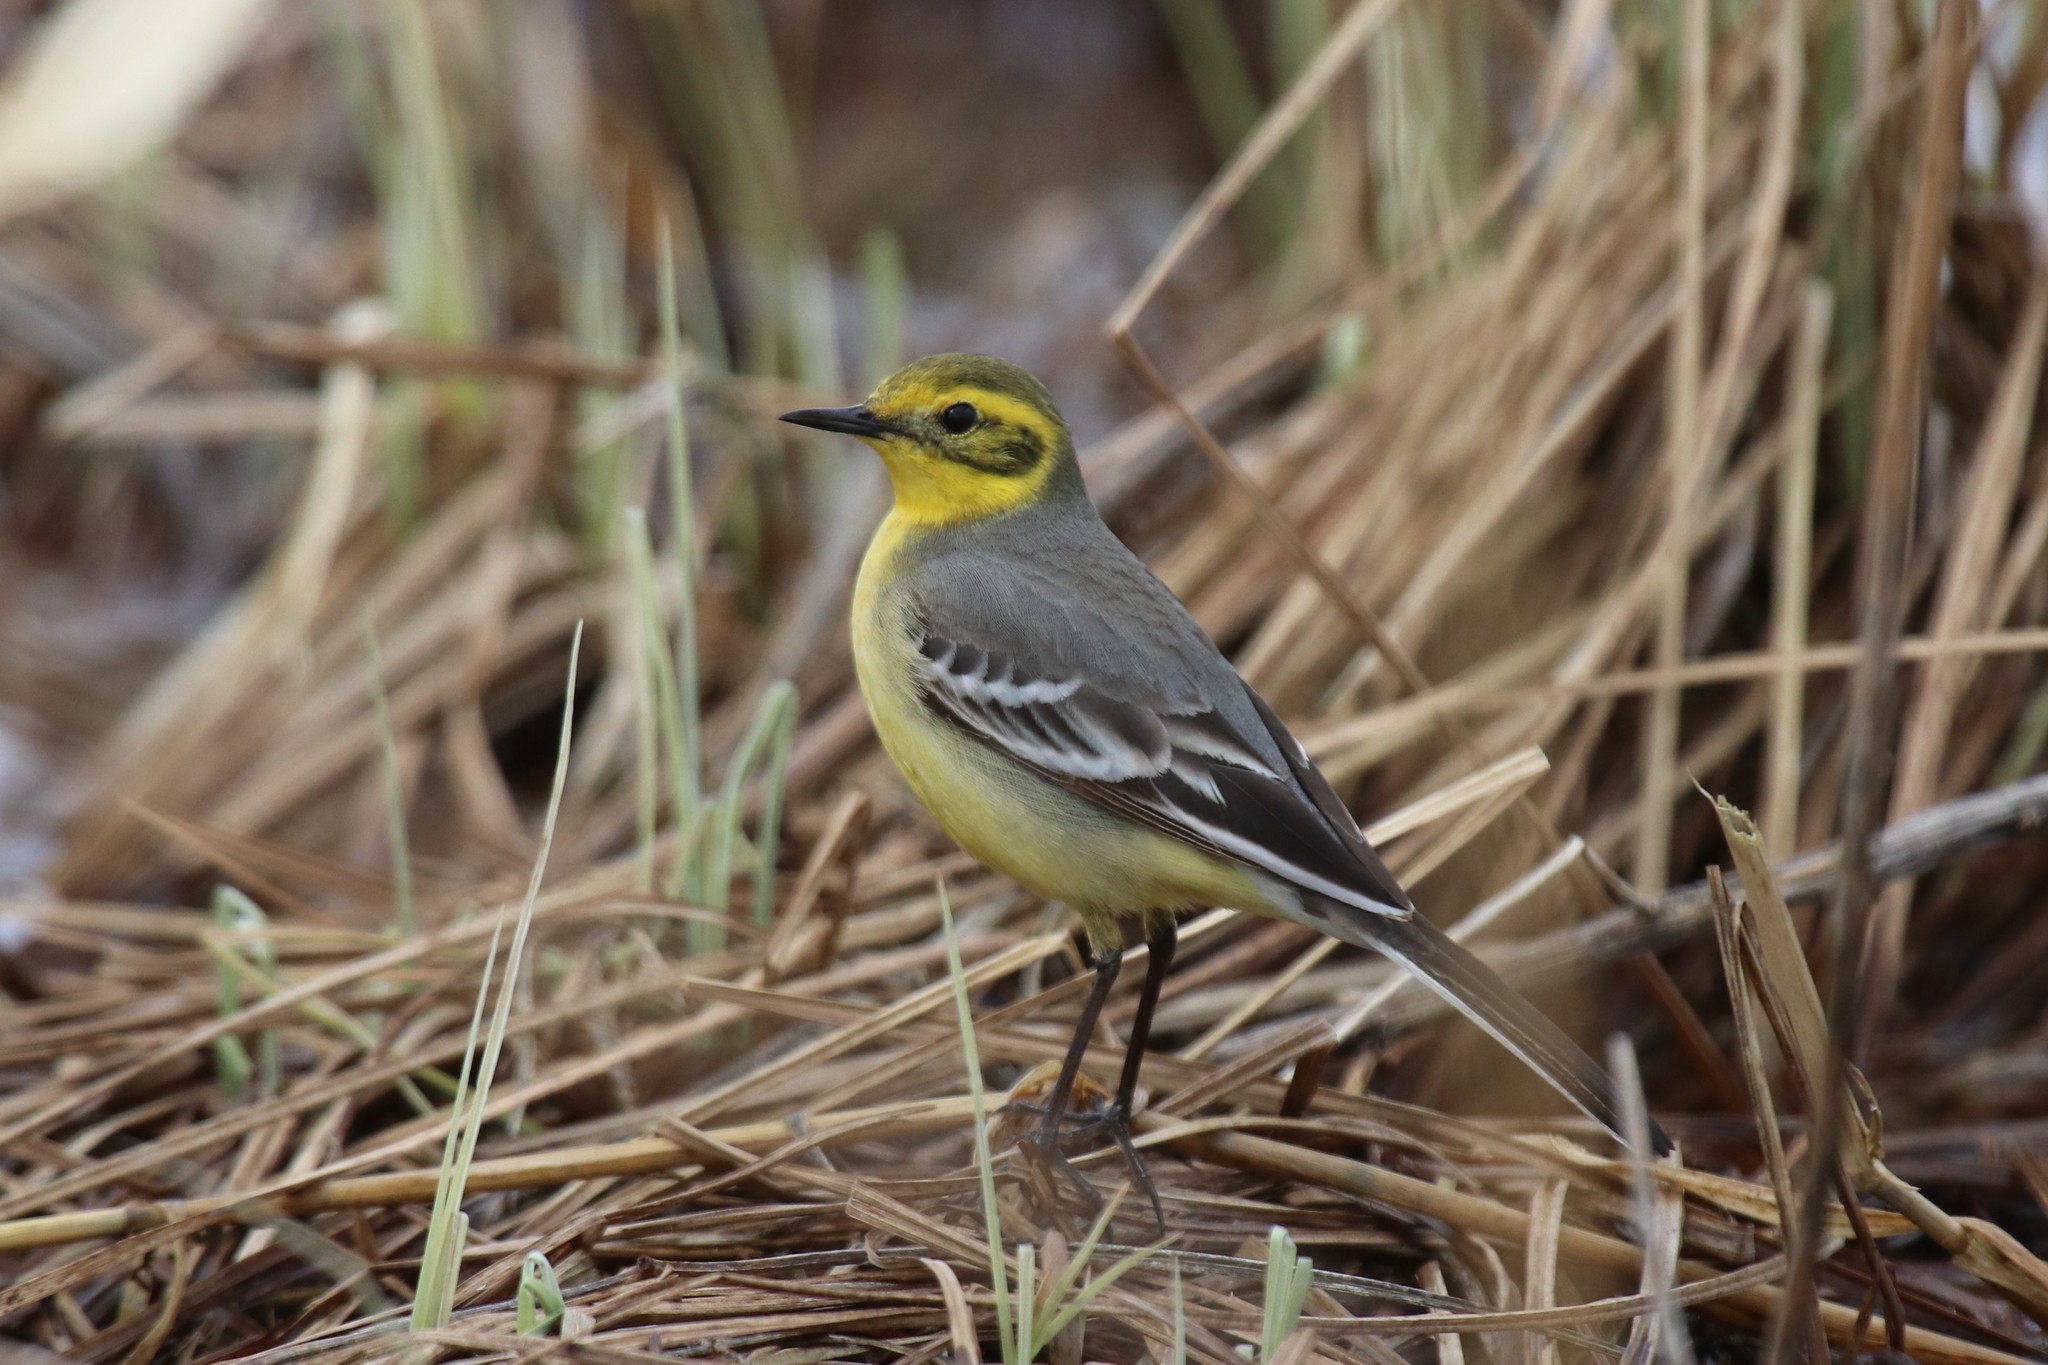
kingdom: Animalia
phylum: Chordata
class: Aves
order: Passeriformes
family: Motacillidae
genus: Motacilla
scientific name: Motacilla citreola
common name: Citrine wagtail
